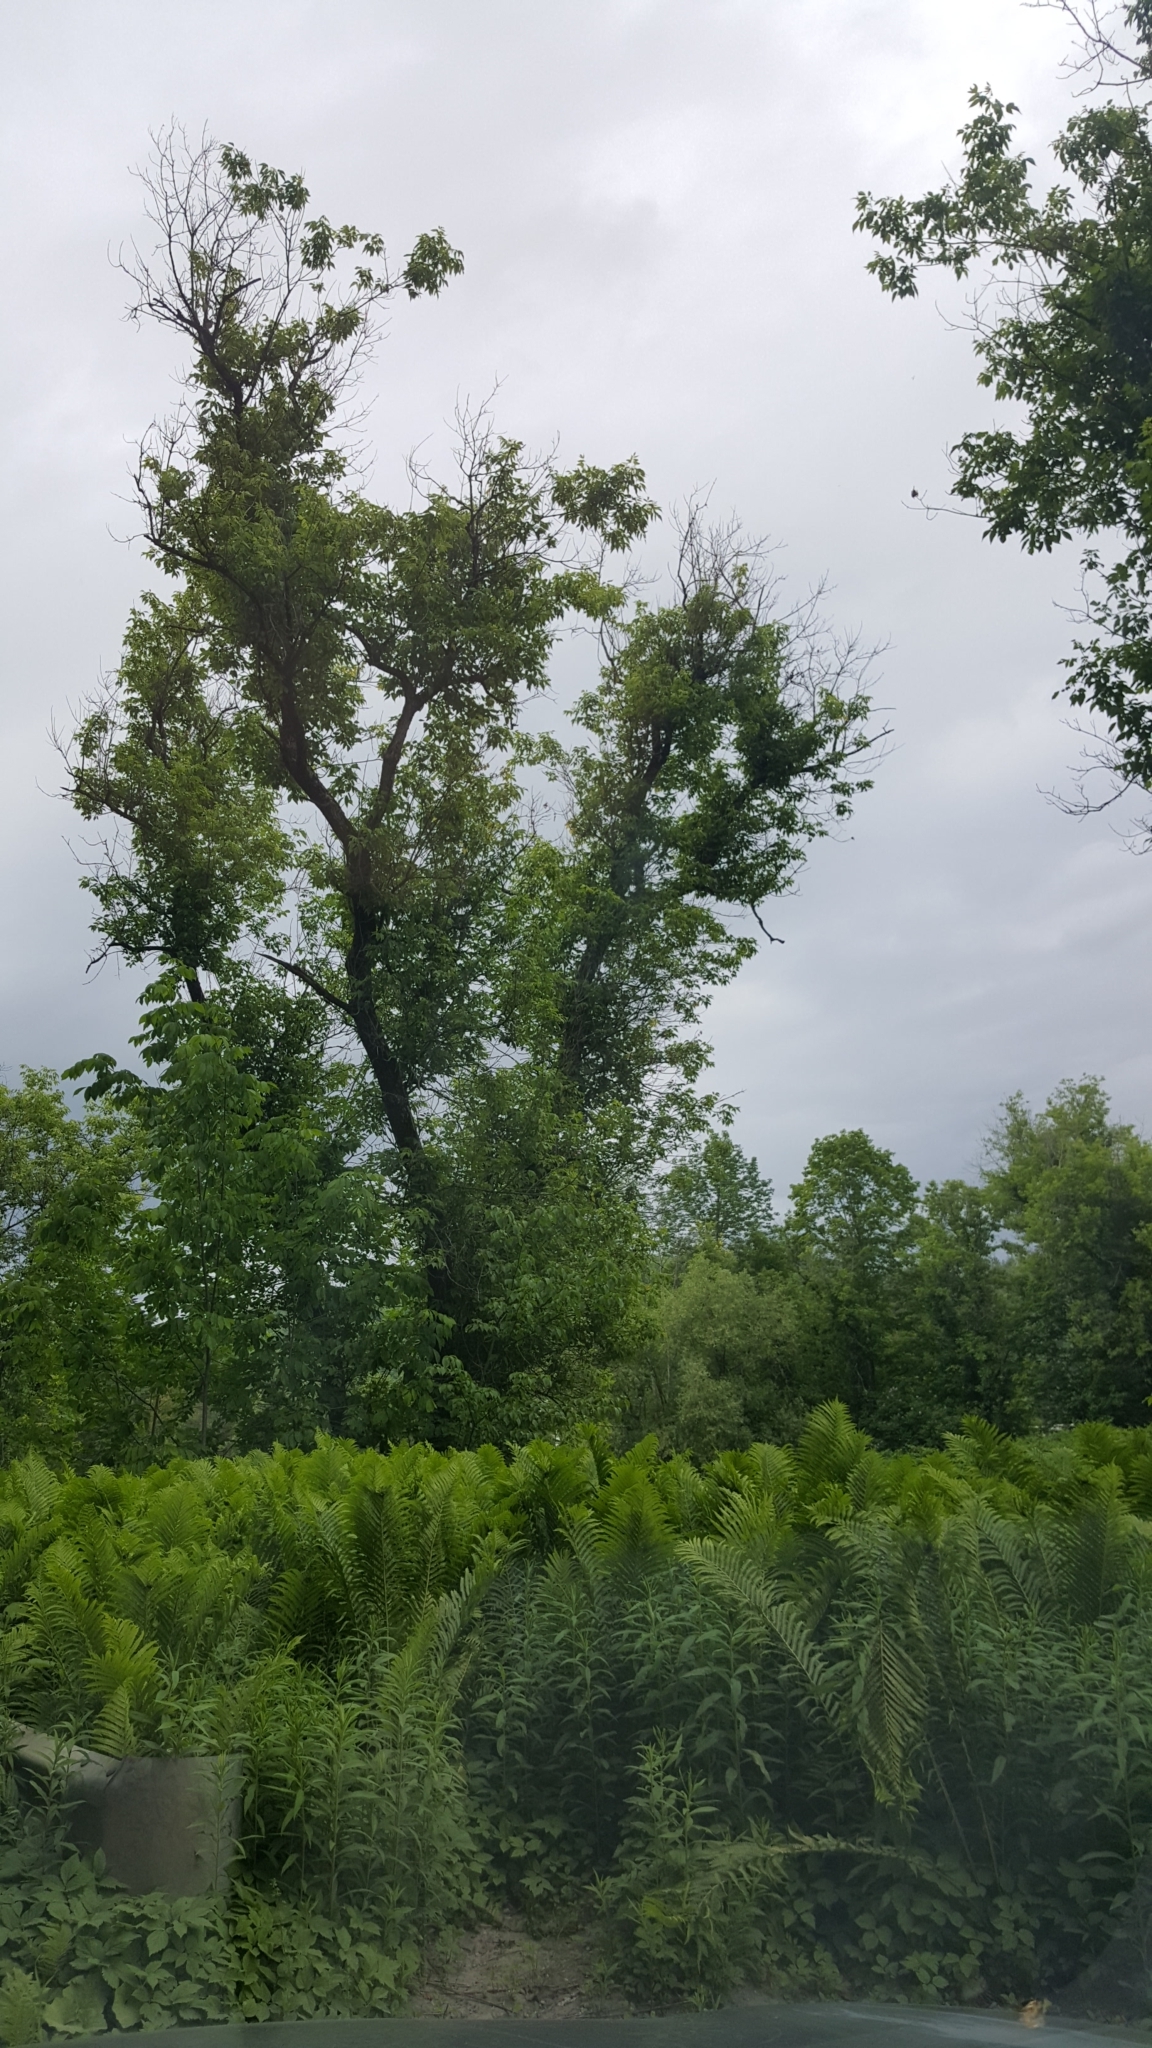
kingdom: Plantae
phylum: Tracheophyta
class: Magnoliopsida
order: Sapindales
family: Sapindaceae
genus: Acer
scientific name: Acer negundo
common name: Ashleaf maple
